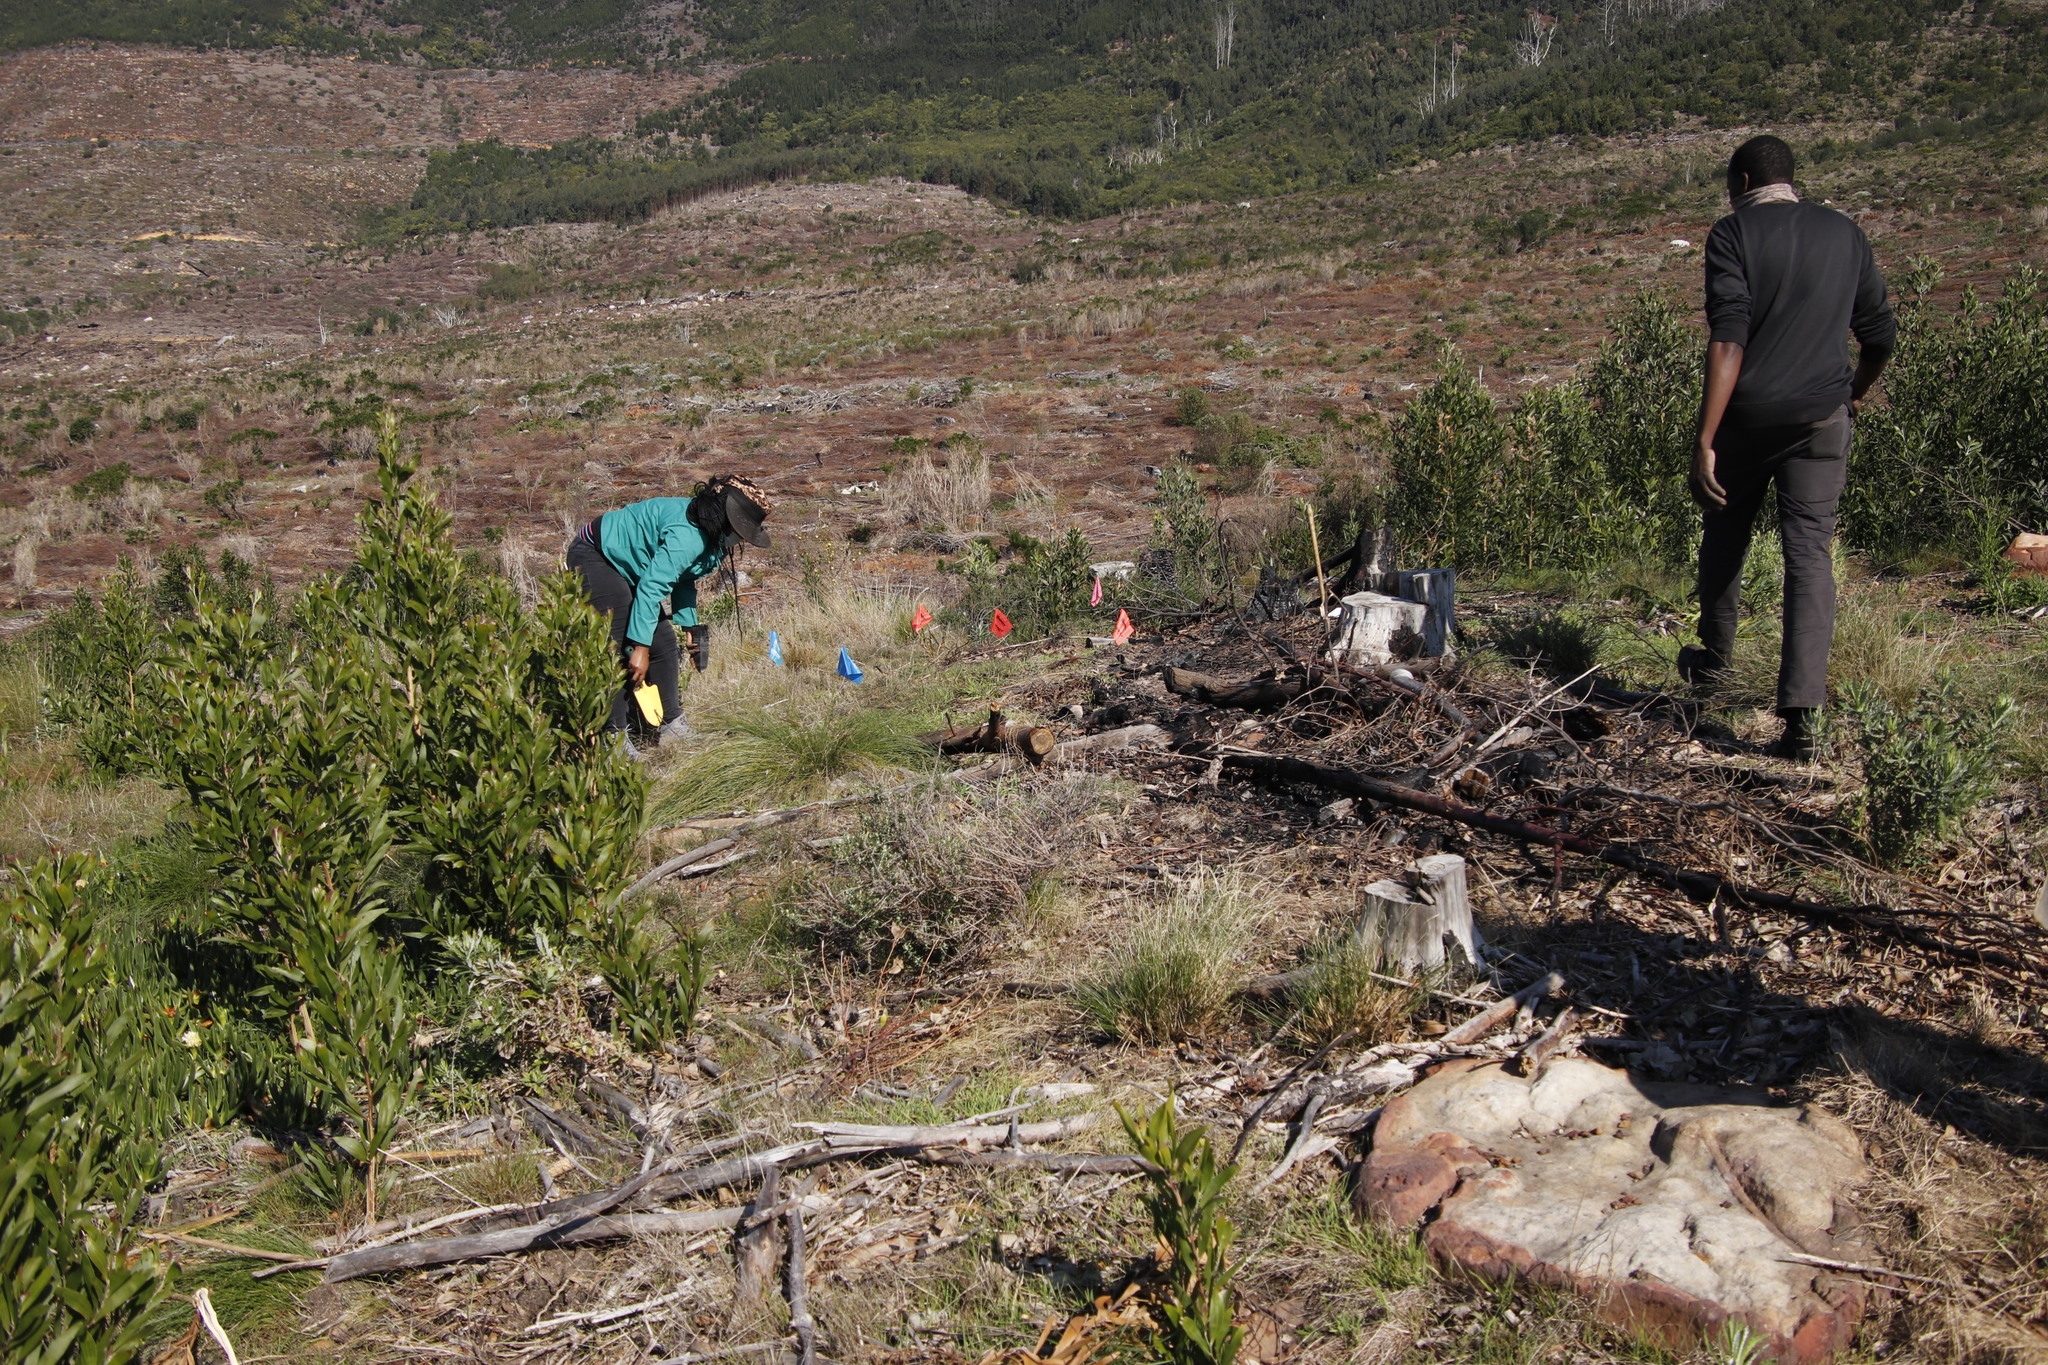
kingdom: Plantae
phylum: Tracheophyta
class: Magnoliopsida
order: Fabales
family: Fabaceae
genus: Acacia
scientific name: Acacia melanoxylon
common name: Blackwood
